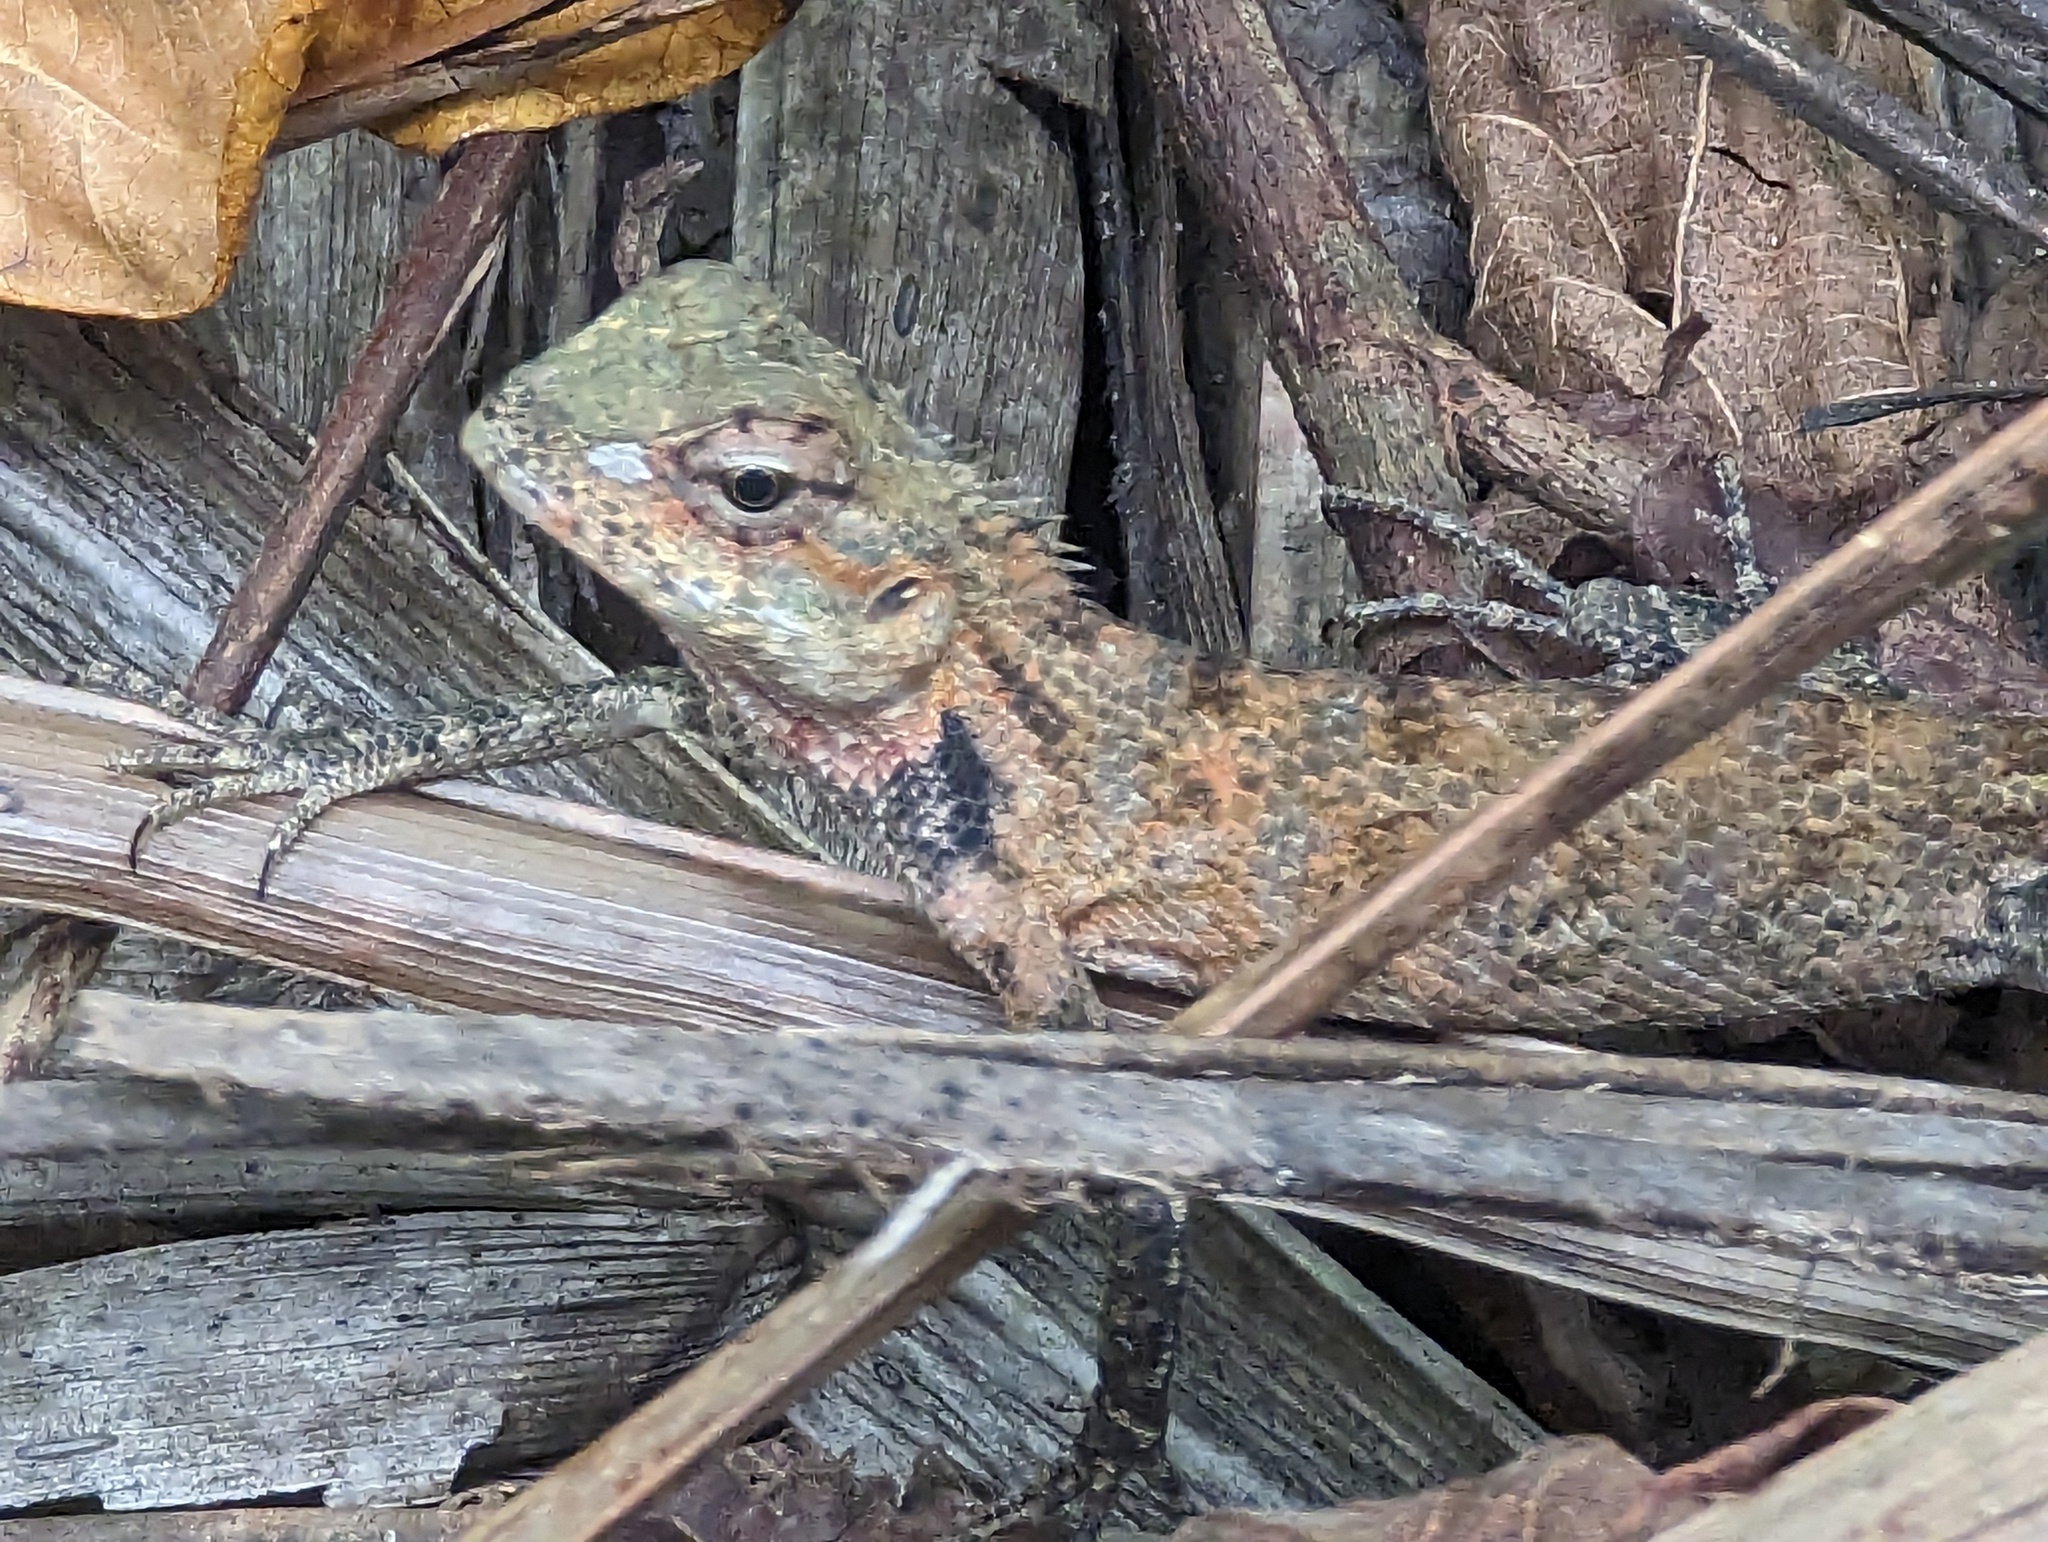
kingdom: Animalia
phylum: Chordata
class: Squamata
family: Agamidae
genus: Calotes
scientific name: Calotes versicolor
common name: Oriental garden lizard
